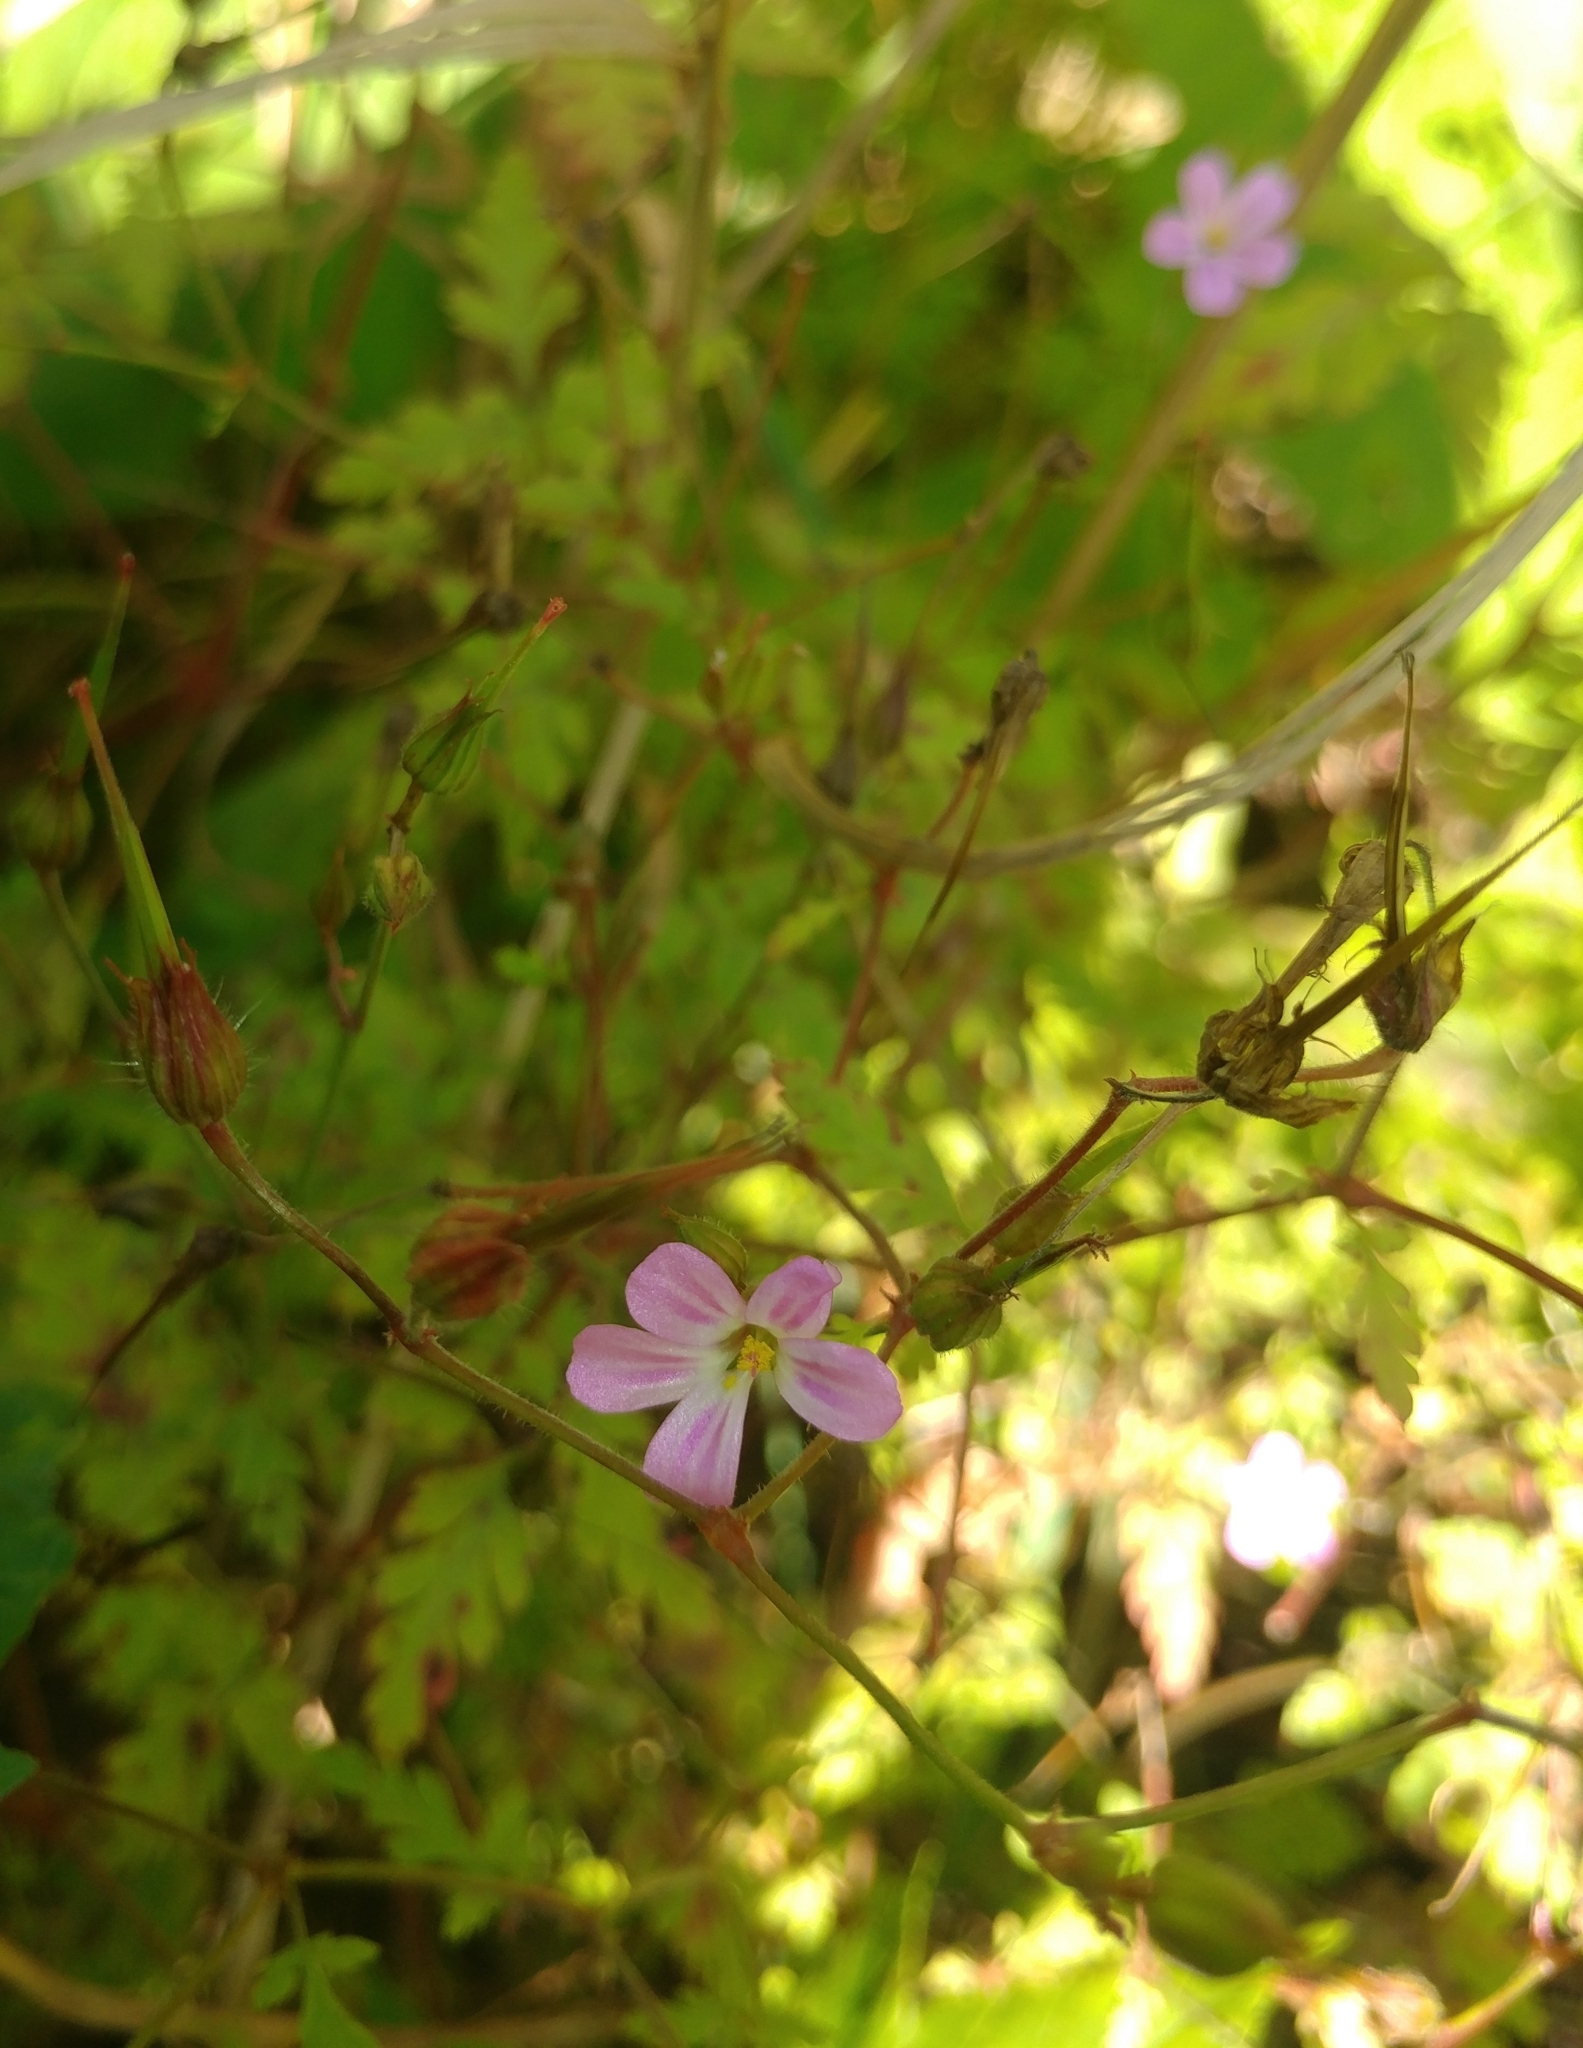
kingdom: Plantae
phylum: Tracheophyta
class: Magnoliopsida
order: Geraniales
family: Geraniaceae
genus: Geranium
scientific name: Geranium robertianum
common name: Herb-robert
